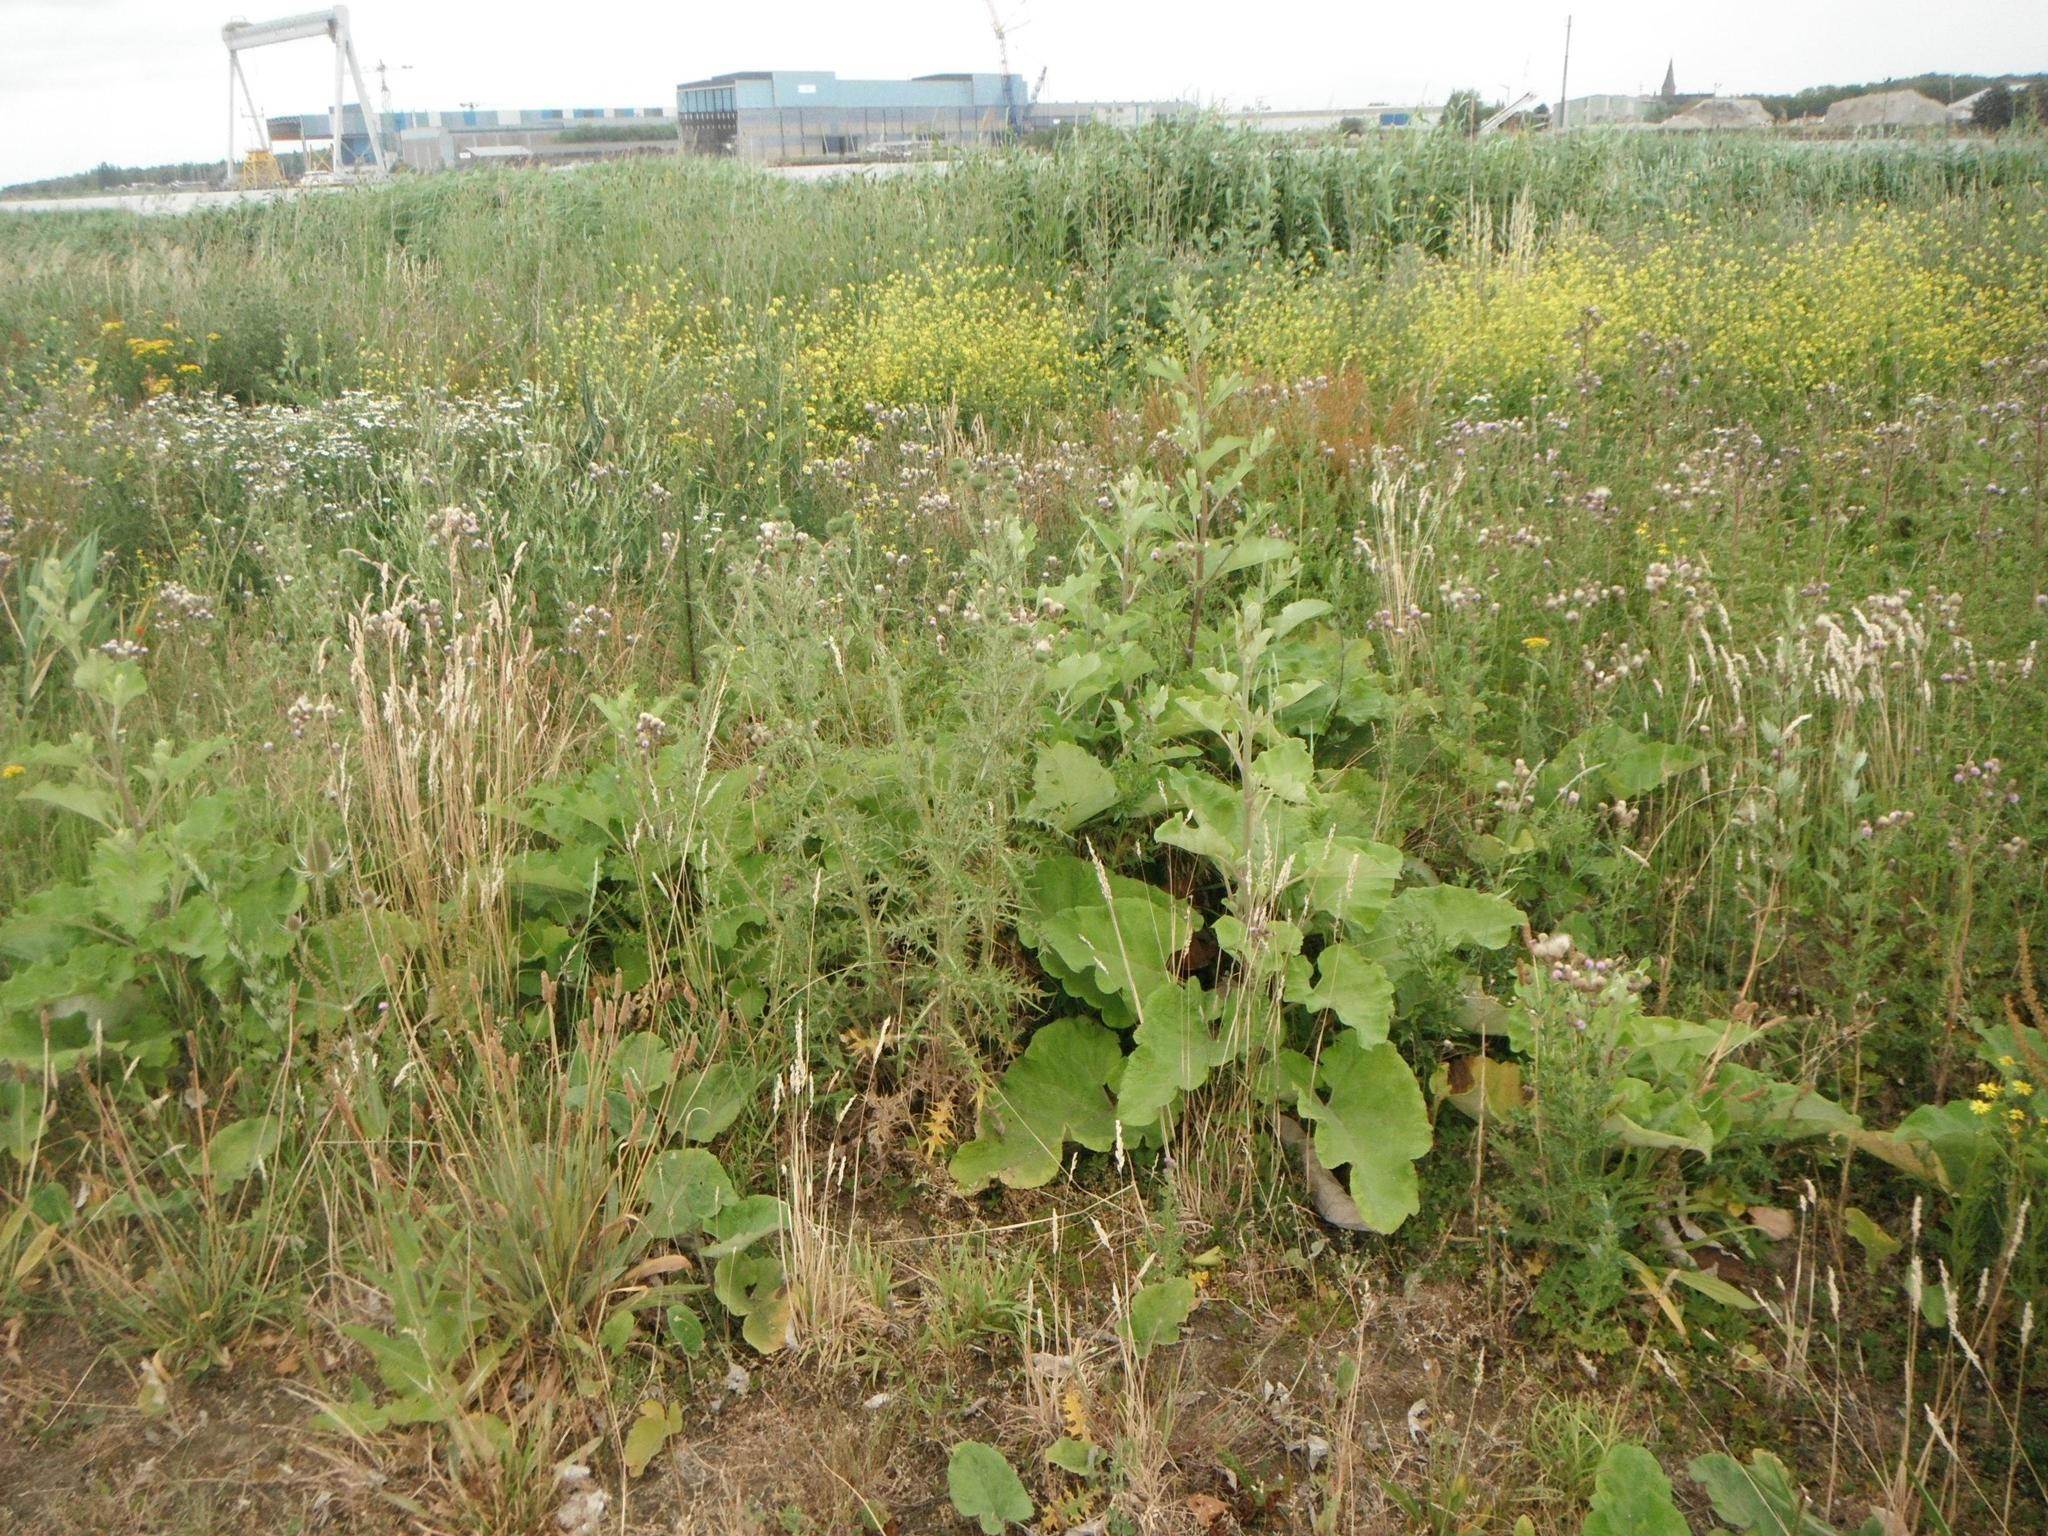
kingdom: Plantae
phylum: Tracheophyta
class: Magnoliopsida
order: Asterales
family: Asteraceae
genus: Cirsium
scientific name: Cirsium arvense
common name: Creeping thistle
